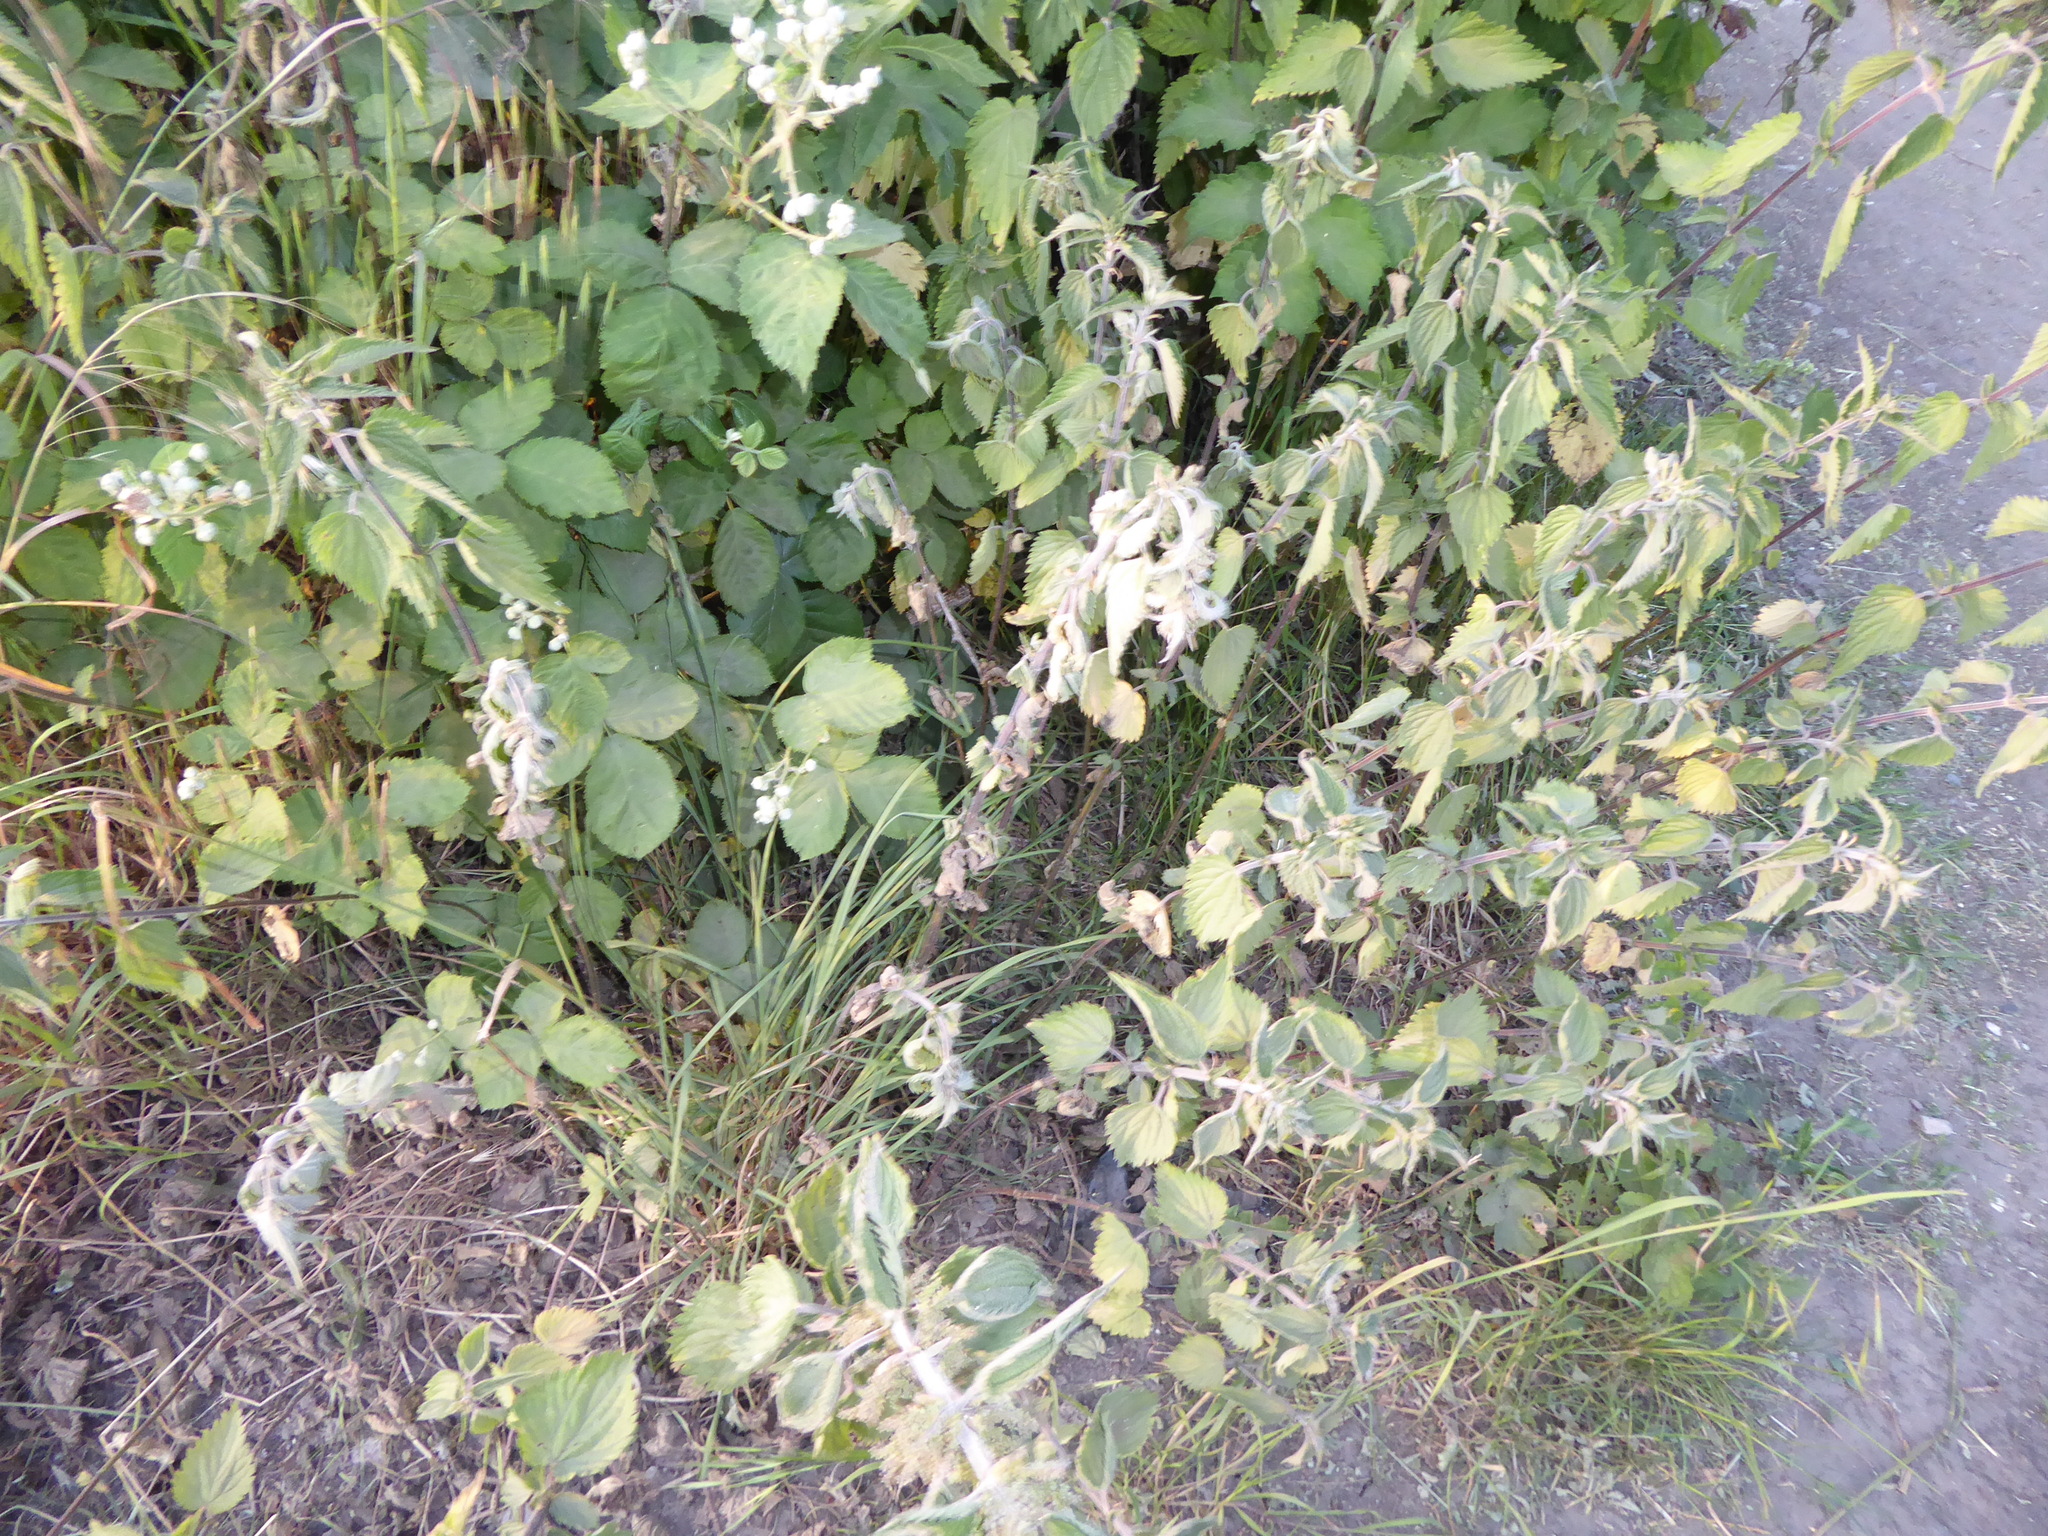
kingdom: Plantae
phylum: Tracheophyta
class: Magnoliopsida
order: Rosales
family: Urticaceae
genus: Urtica
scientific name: Urtica dioica
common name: Common nettle
